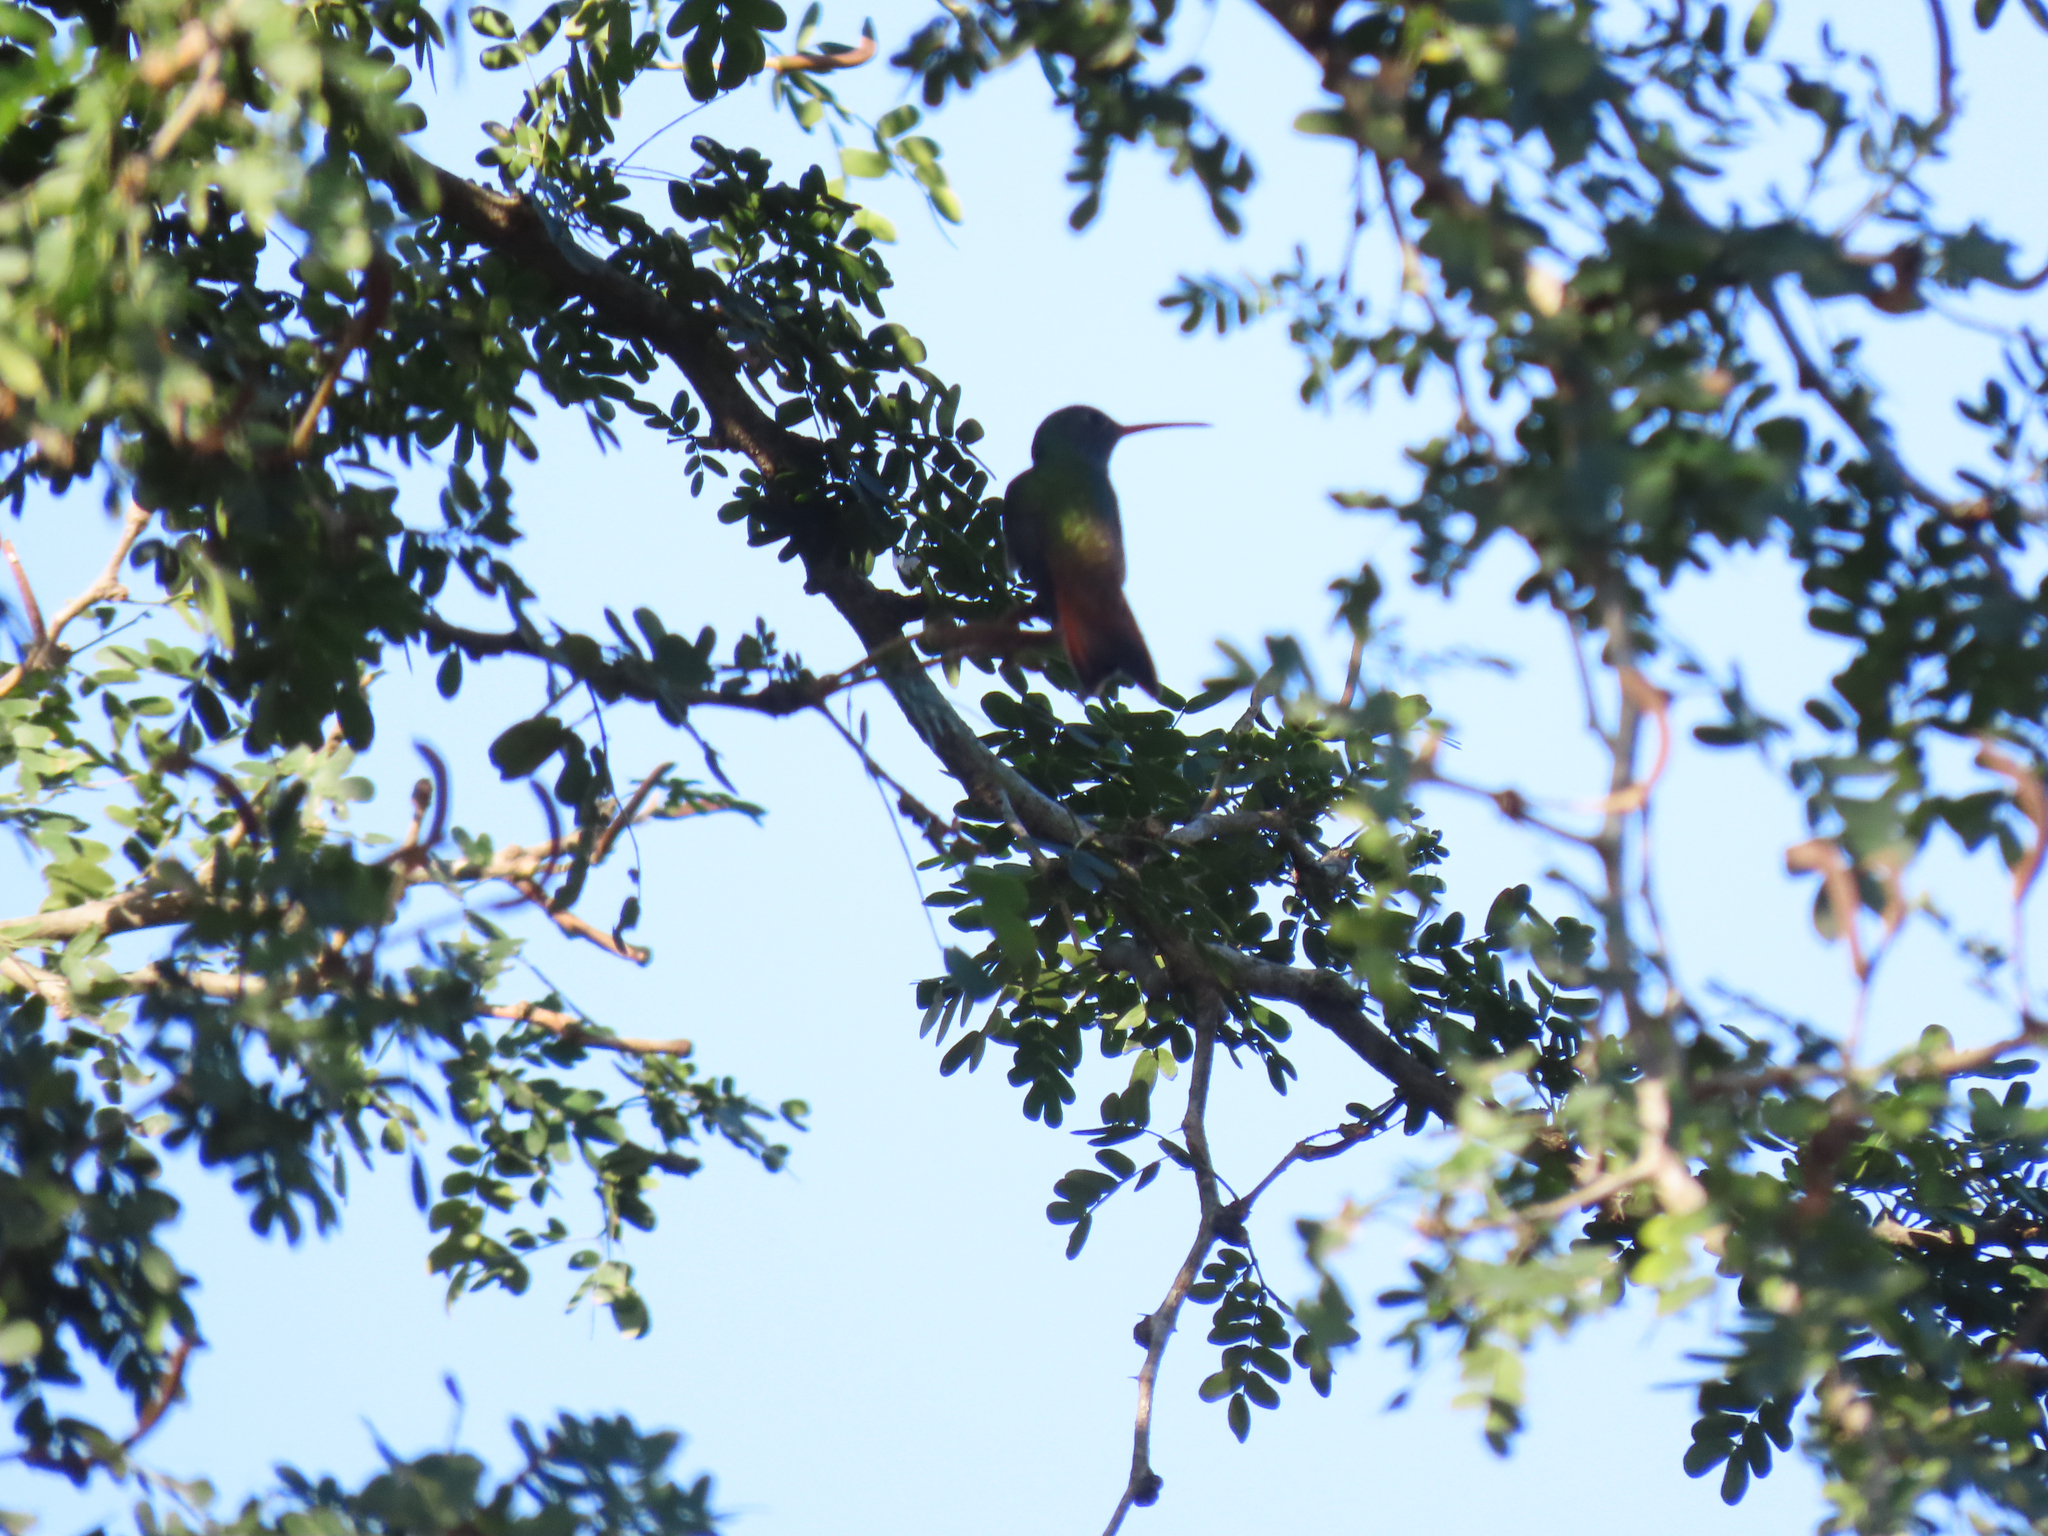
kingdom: Animalia
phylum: Chordata
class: Aves
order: Apodiformes
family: Trochilidae
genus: Amazilia
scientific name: Amazilia yucatanensis
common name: Buff-bellied hummingbird
